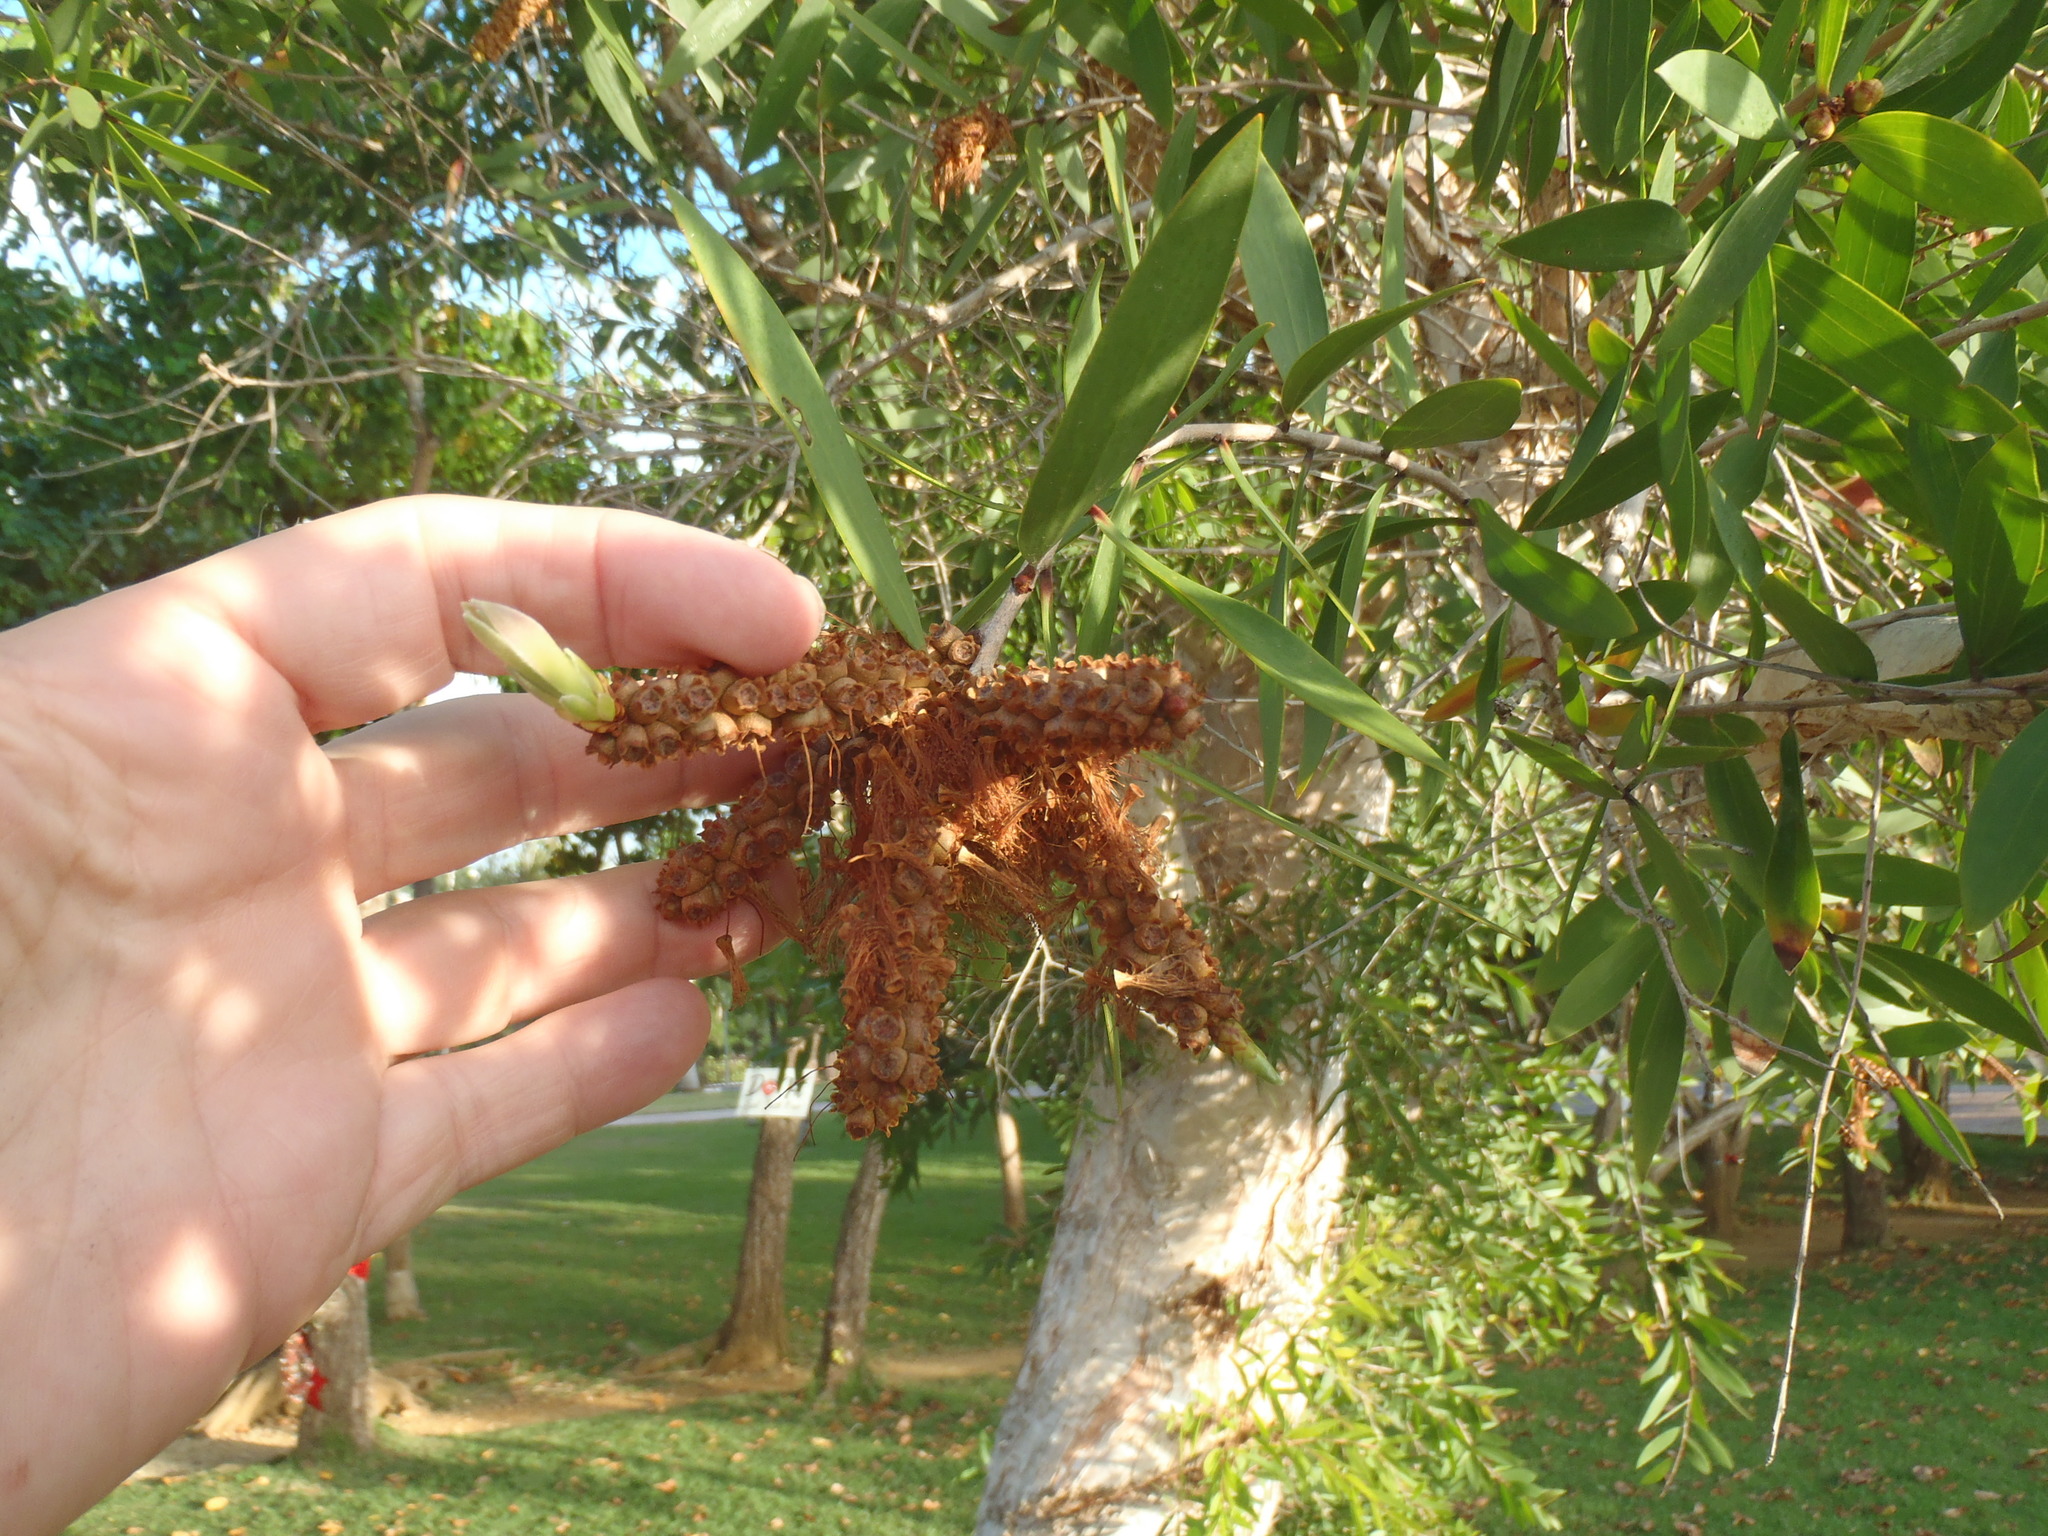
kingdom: Plantae
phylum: Tracheophyta
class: Magnoliopsida
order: Myrtales
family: Myrtaceae
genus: Melaleuca
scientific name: Melaleuca quinquenervia
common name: Punktree
